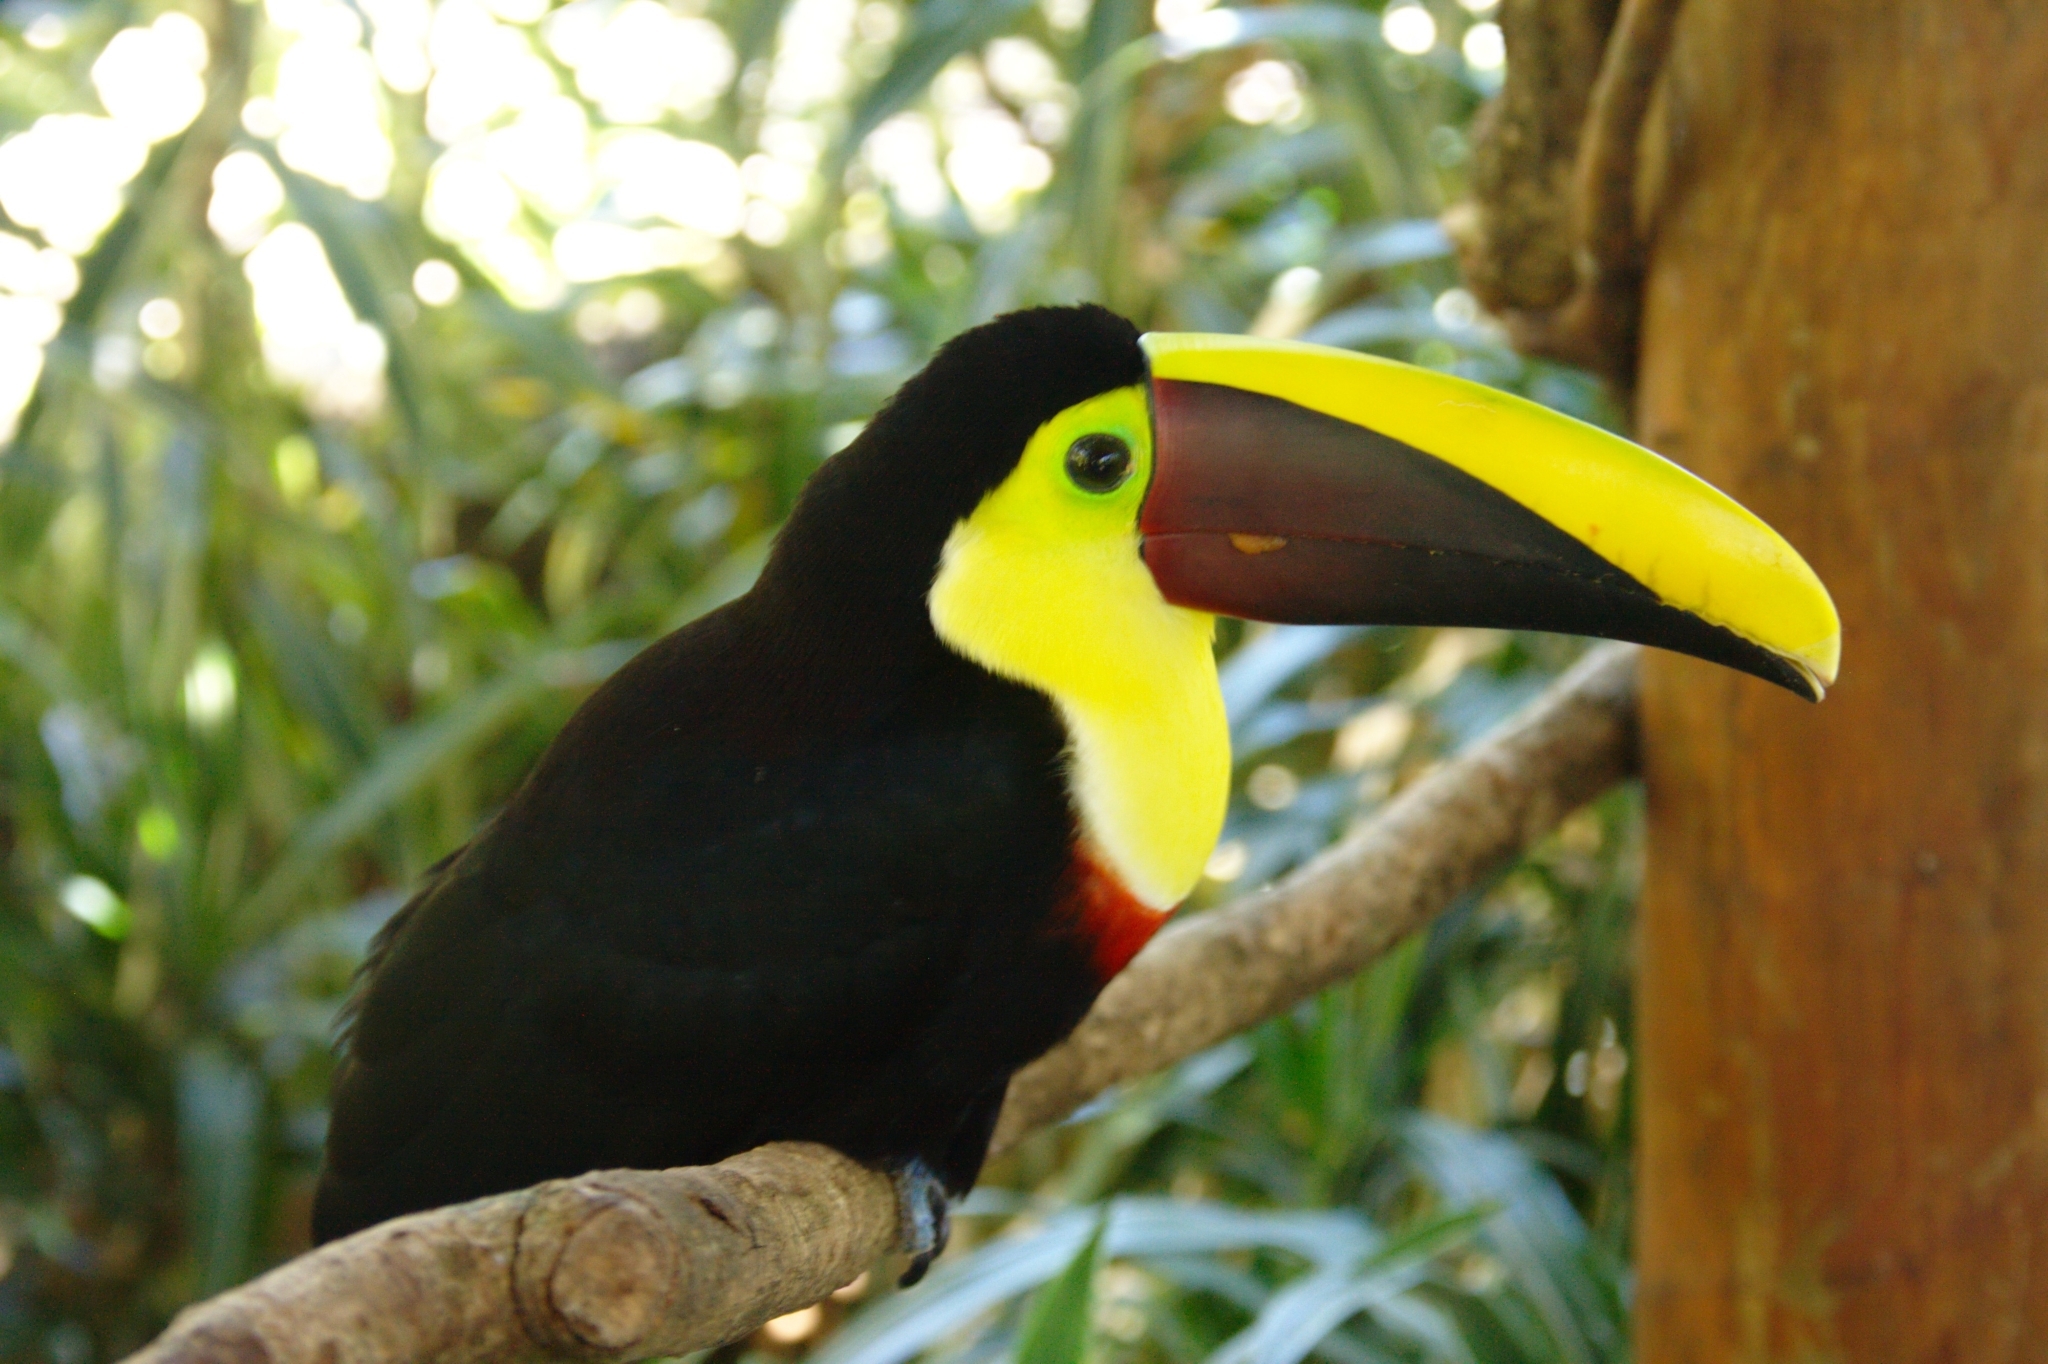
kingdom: Animalia
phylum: Chordata
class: Aves
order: Piciformes
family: Ramphastidae
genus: Ramphastos
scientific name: Ramphastos ambiguus
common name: Yellow-throated toucan
